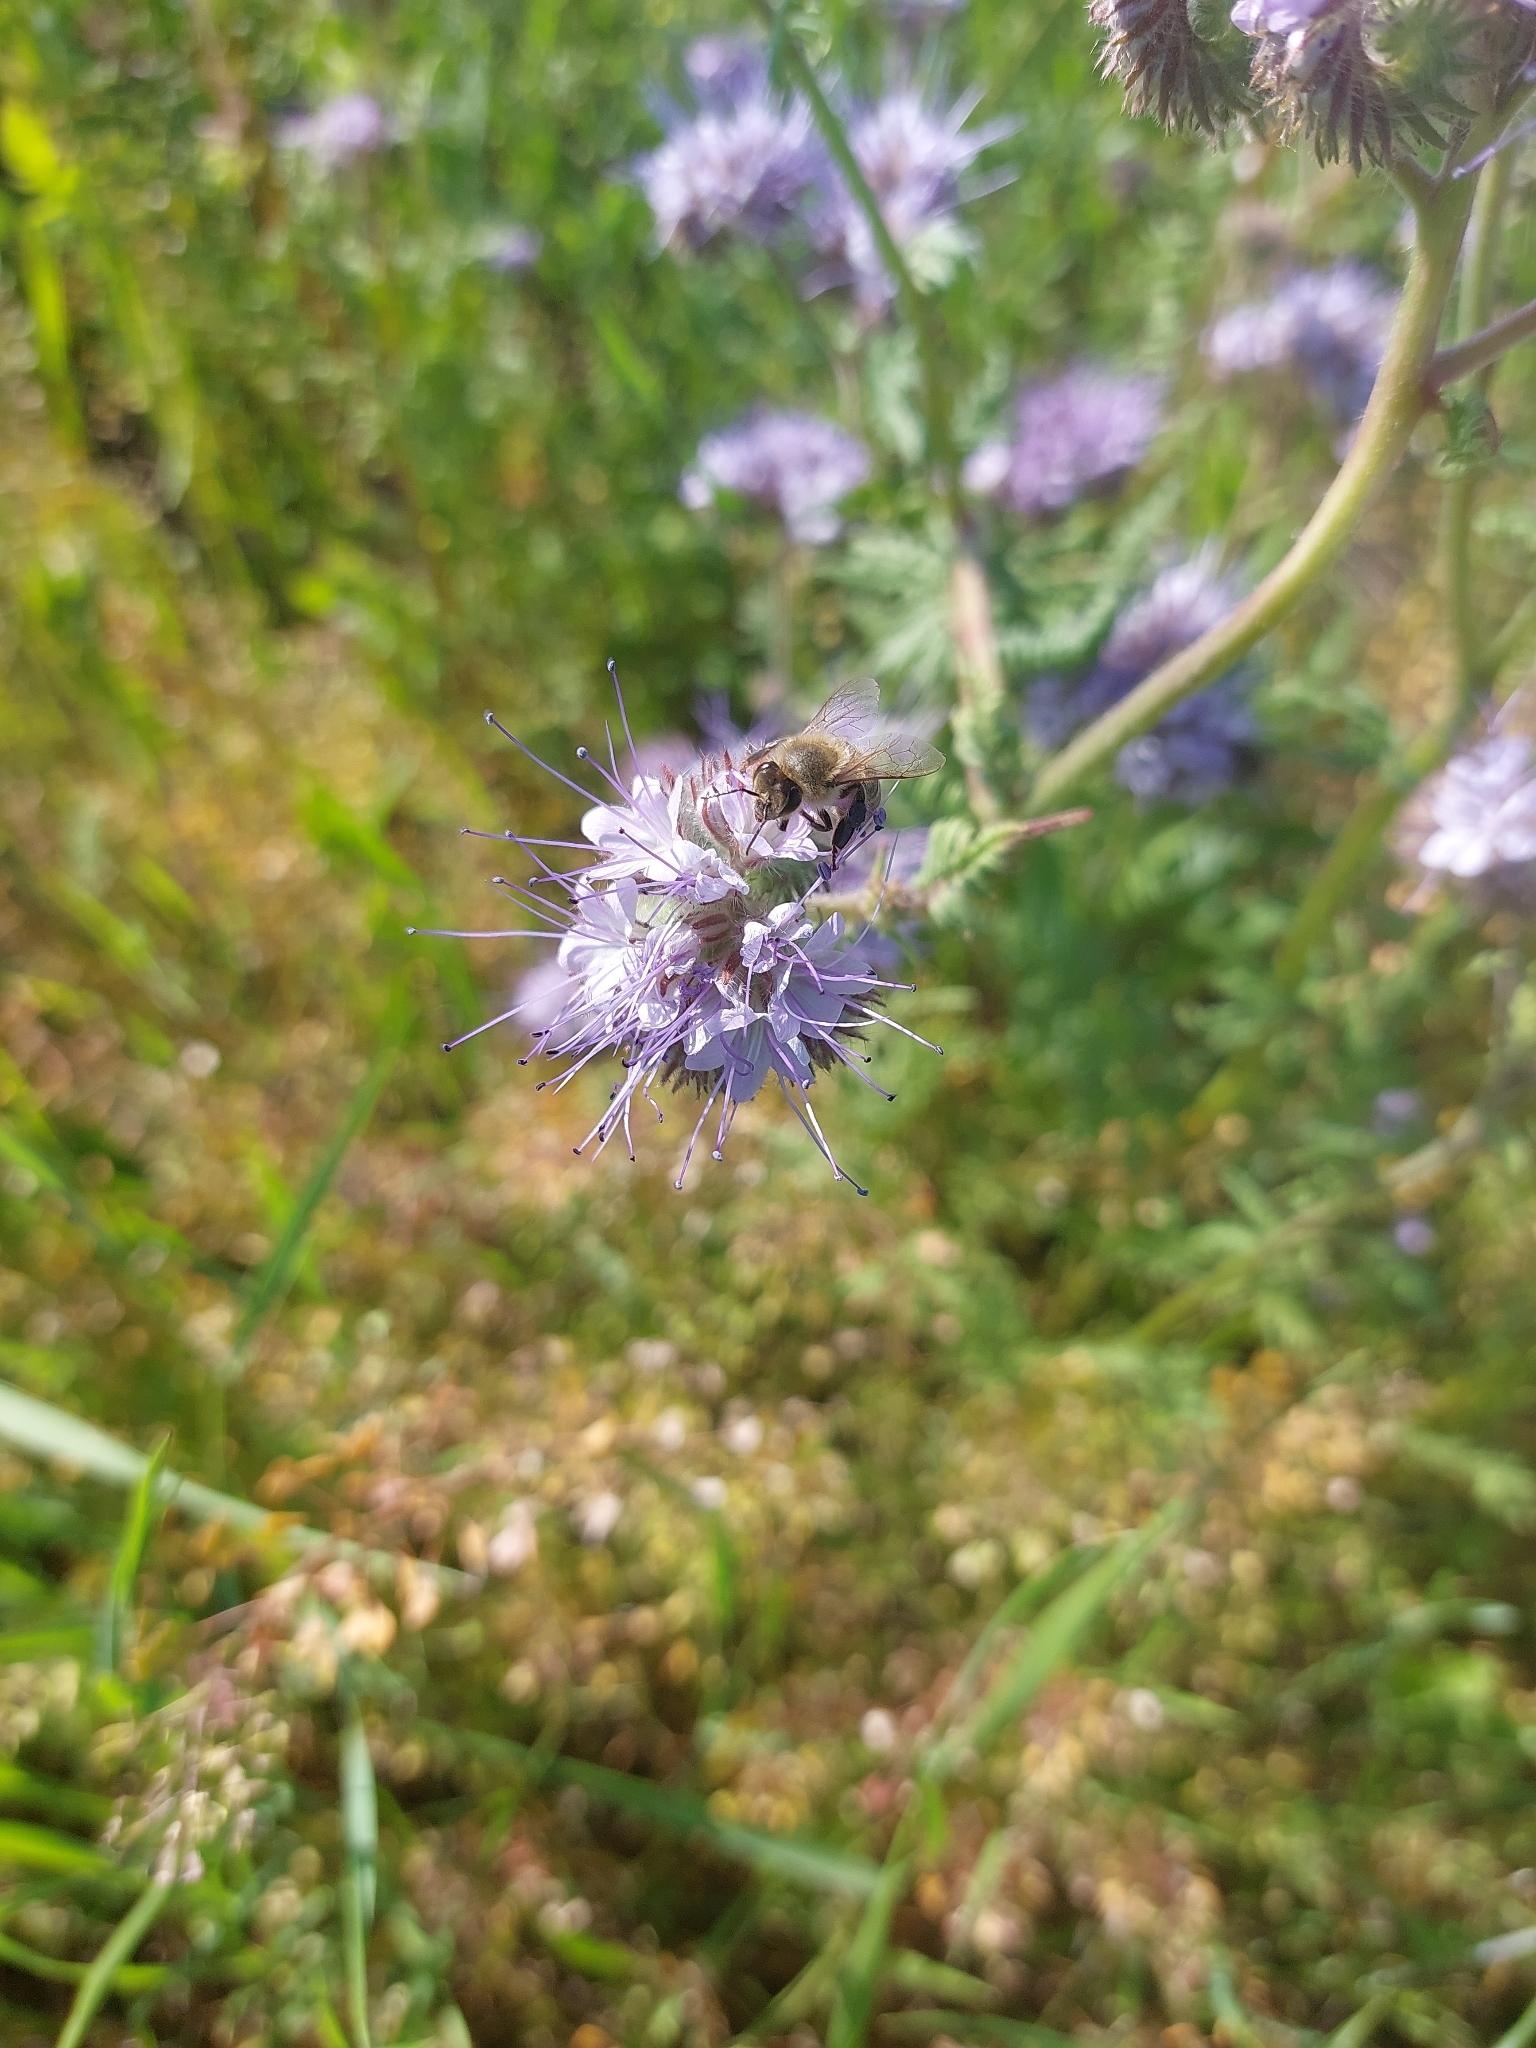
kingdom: Animalia
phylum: Arthropoda
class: Insecta
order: Hymenoptera
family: Apidae
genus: Apis
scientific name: Apis mellifera
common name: Honey bee
